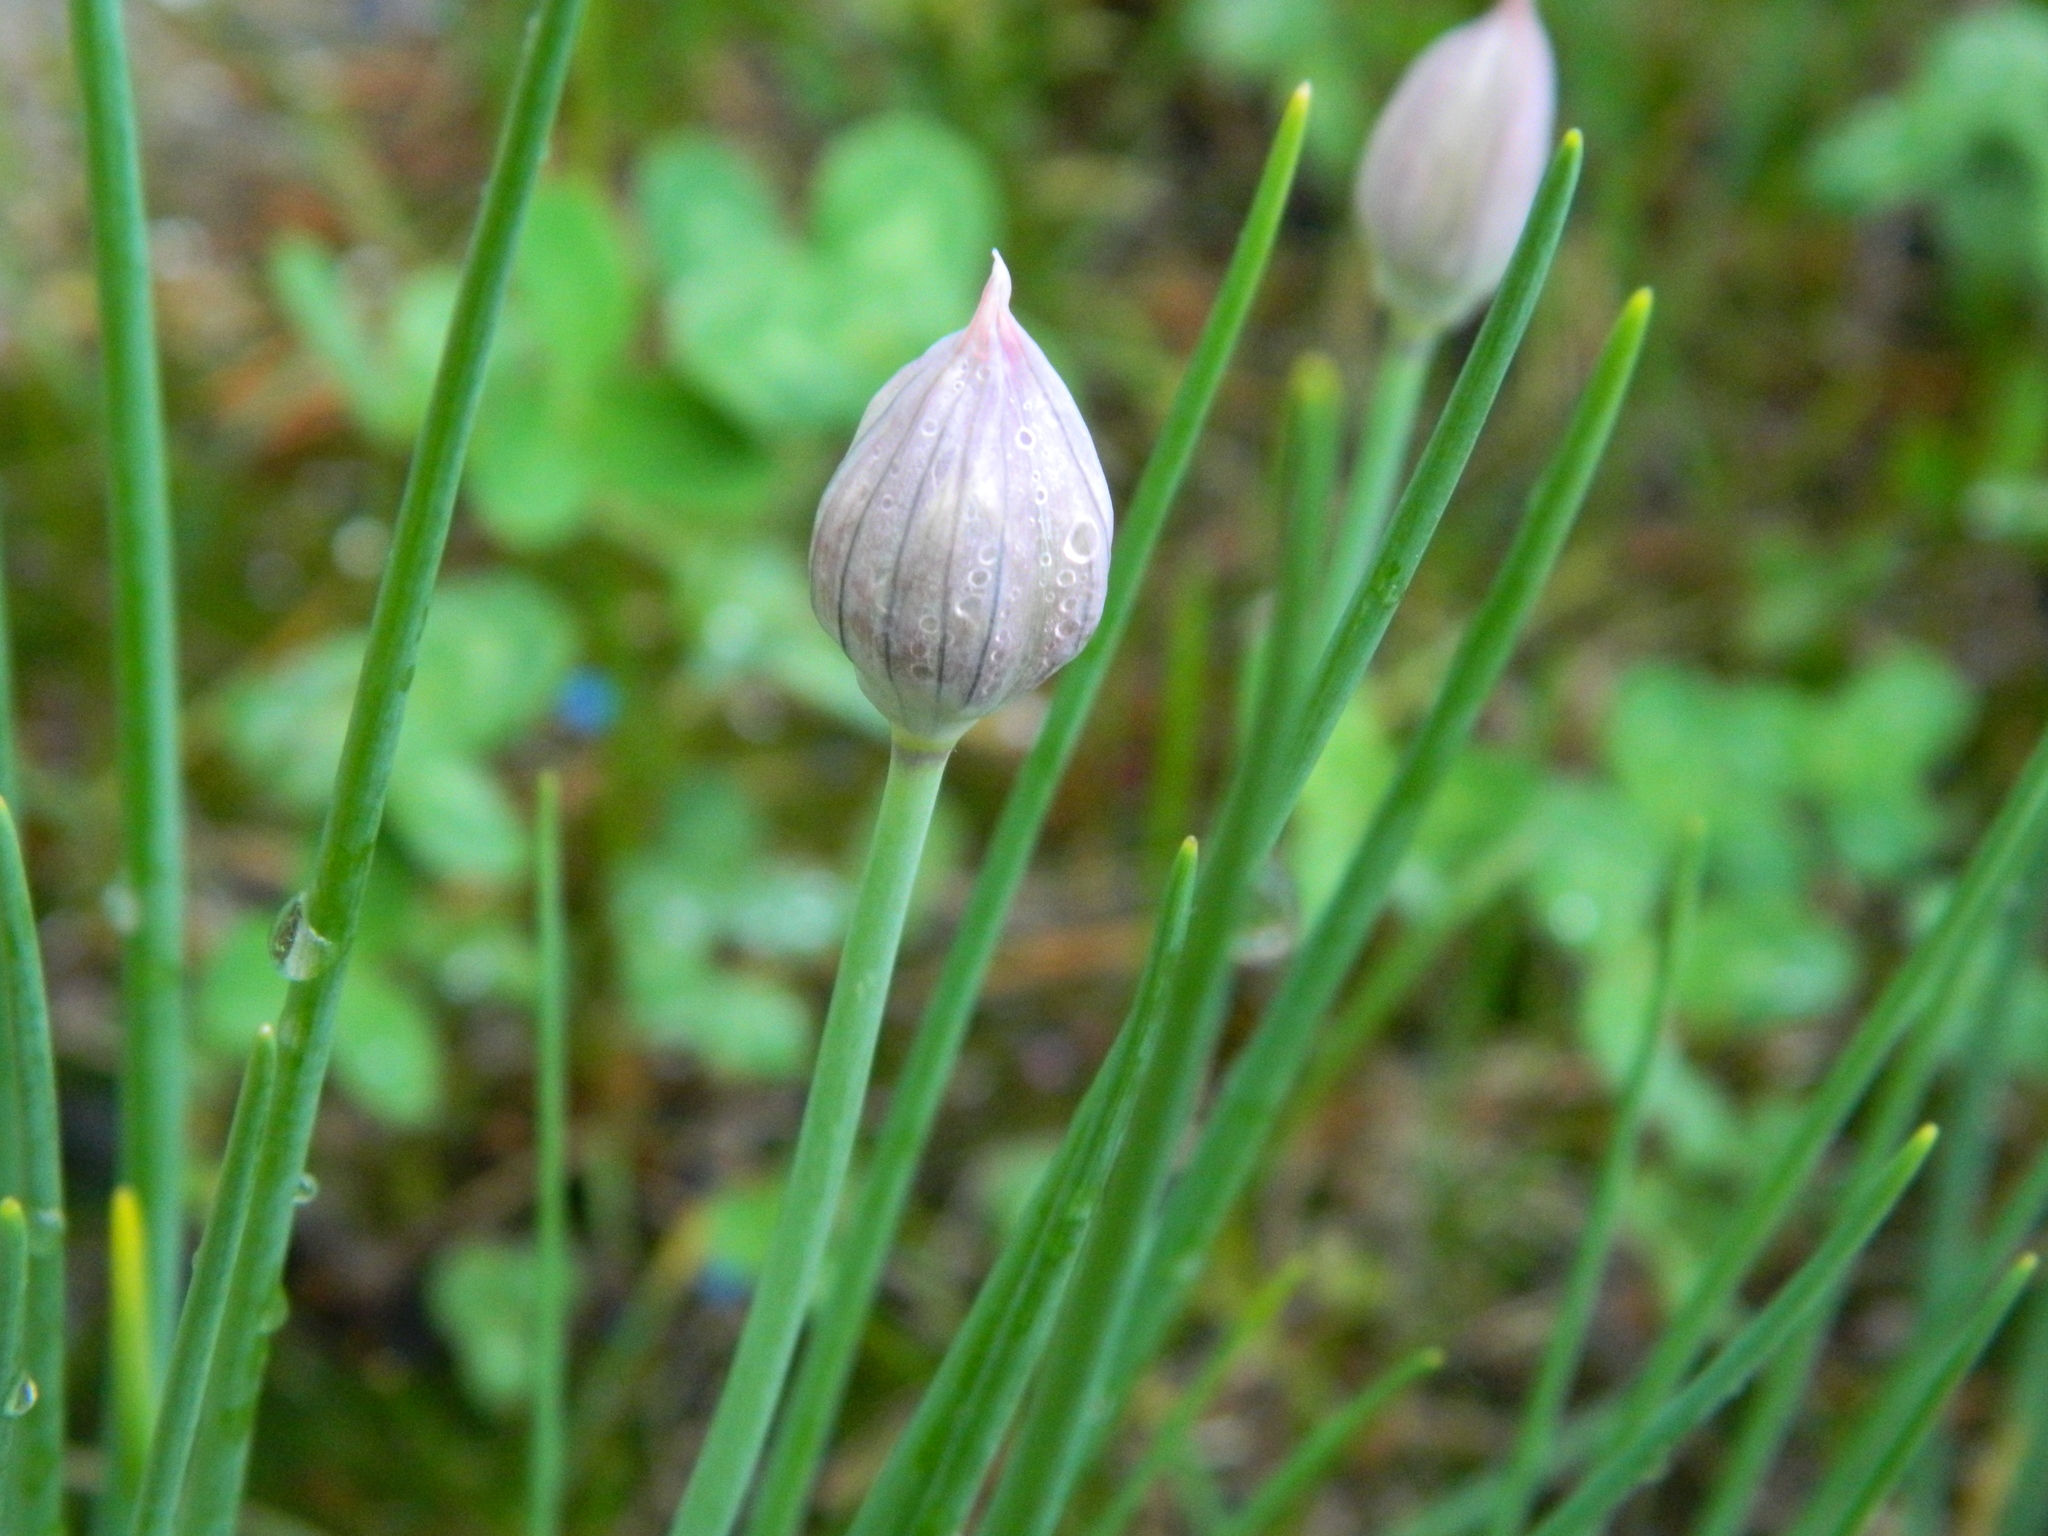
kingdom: Plantae
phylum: Tracheophyta
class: Liliopsida
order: Asparagales
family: Amaryllidaceae
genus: Allium
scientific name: Allium schoenoprasum
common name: Chives
